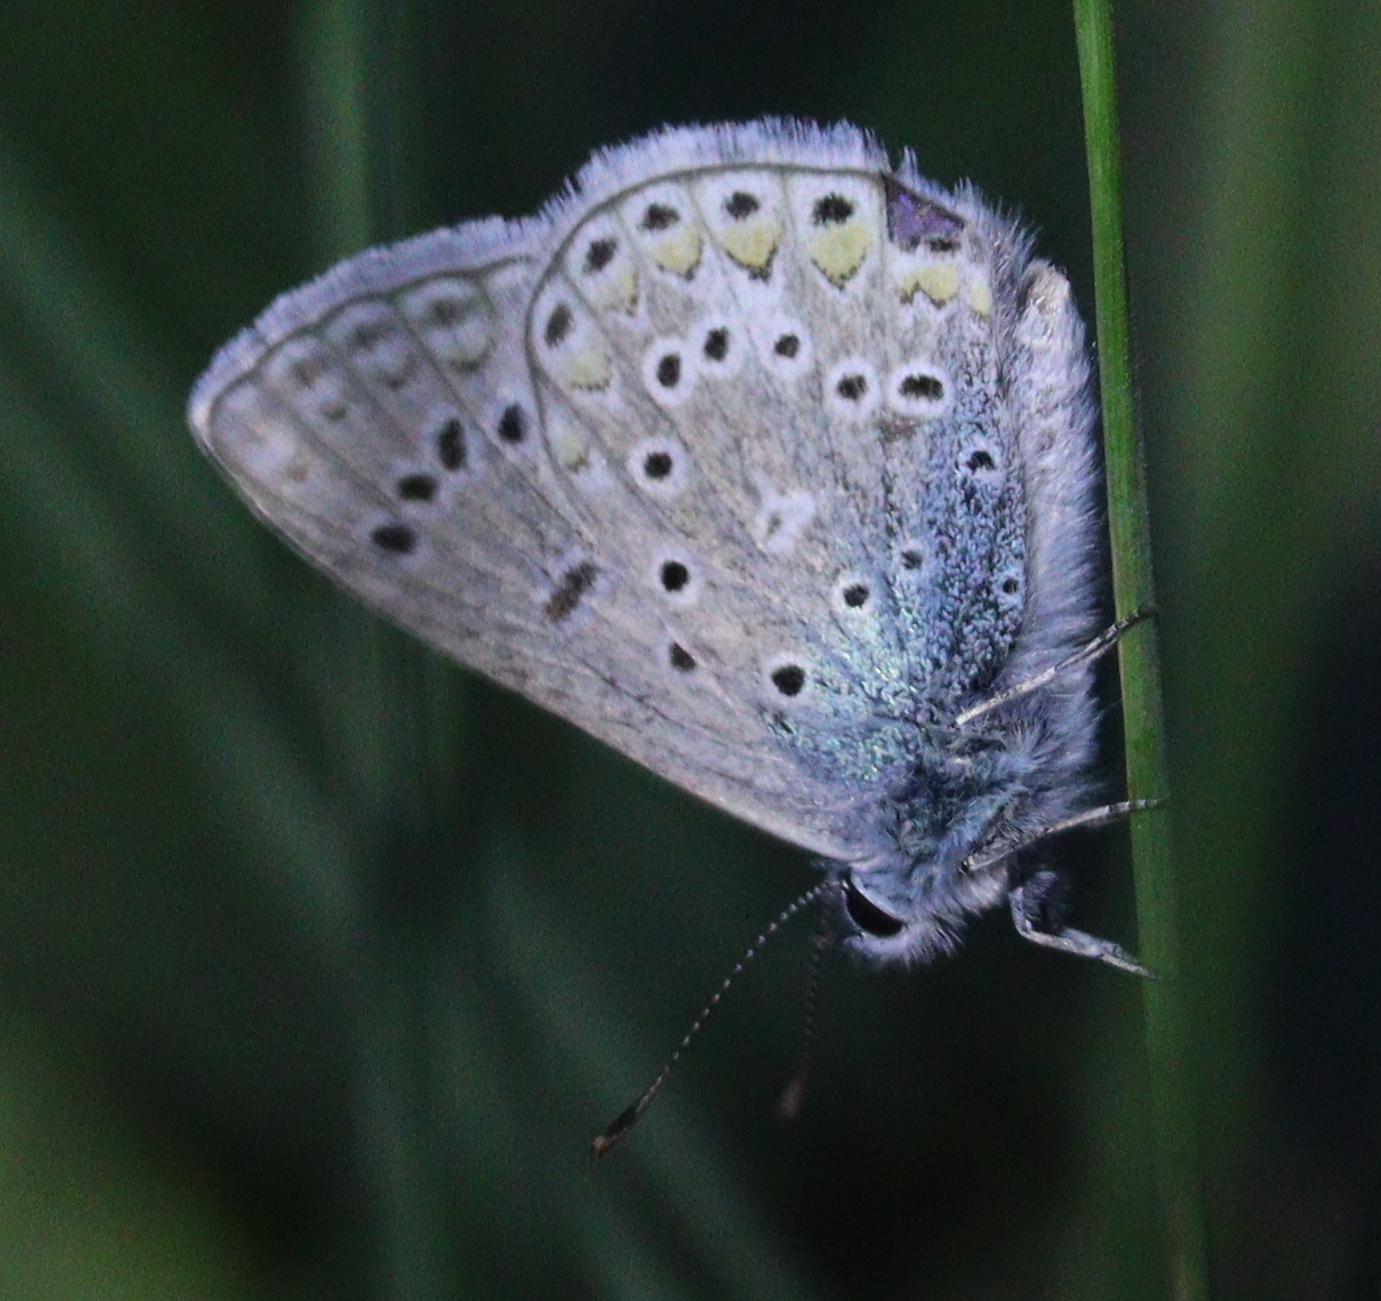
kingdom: Animalia
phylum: Arthropoda
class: Insecta
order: Lepidoptera
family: Lycaenidae
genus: Polyommatus
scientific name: Polyommatus icarus
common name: Common blue
